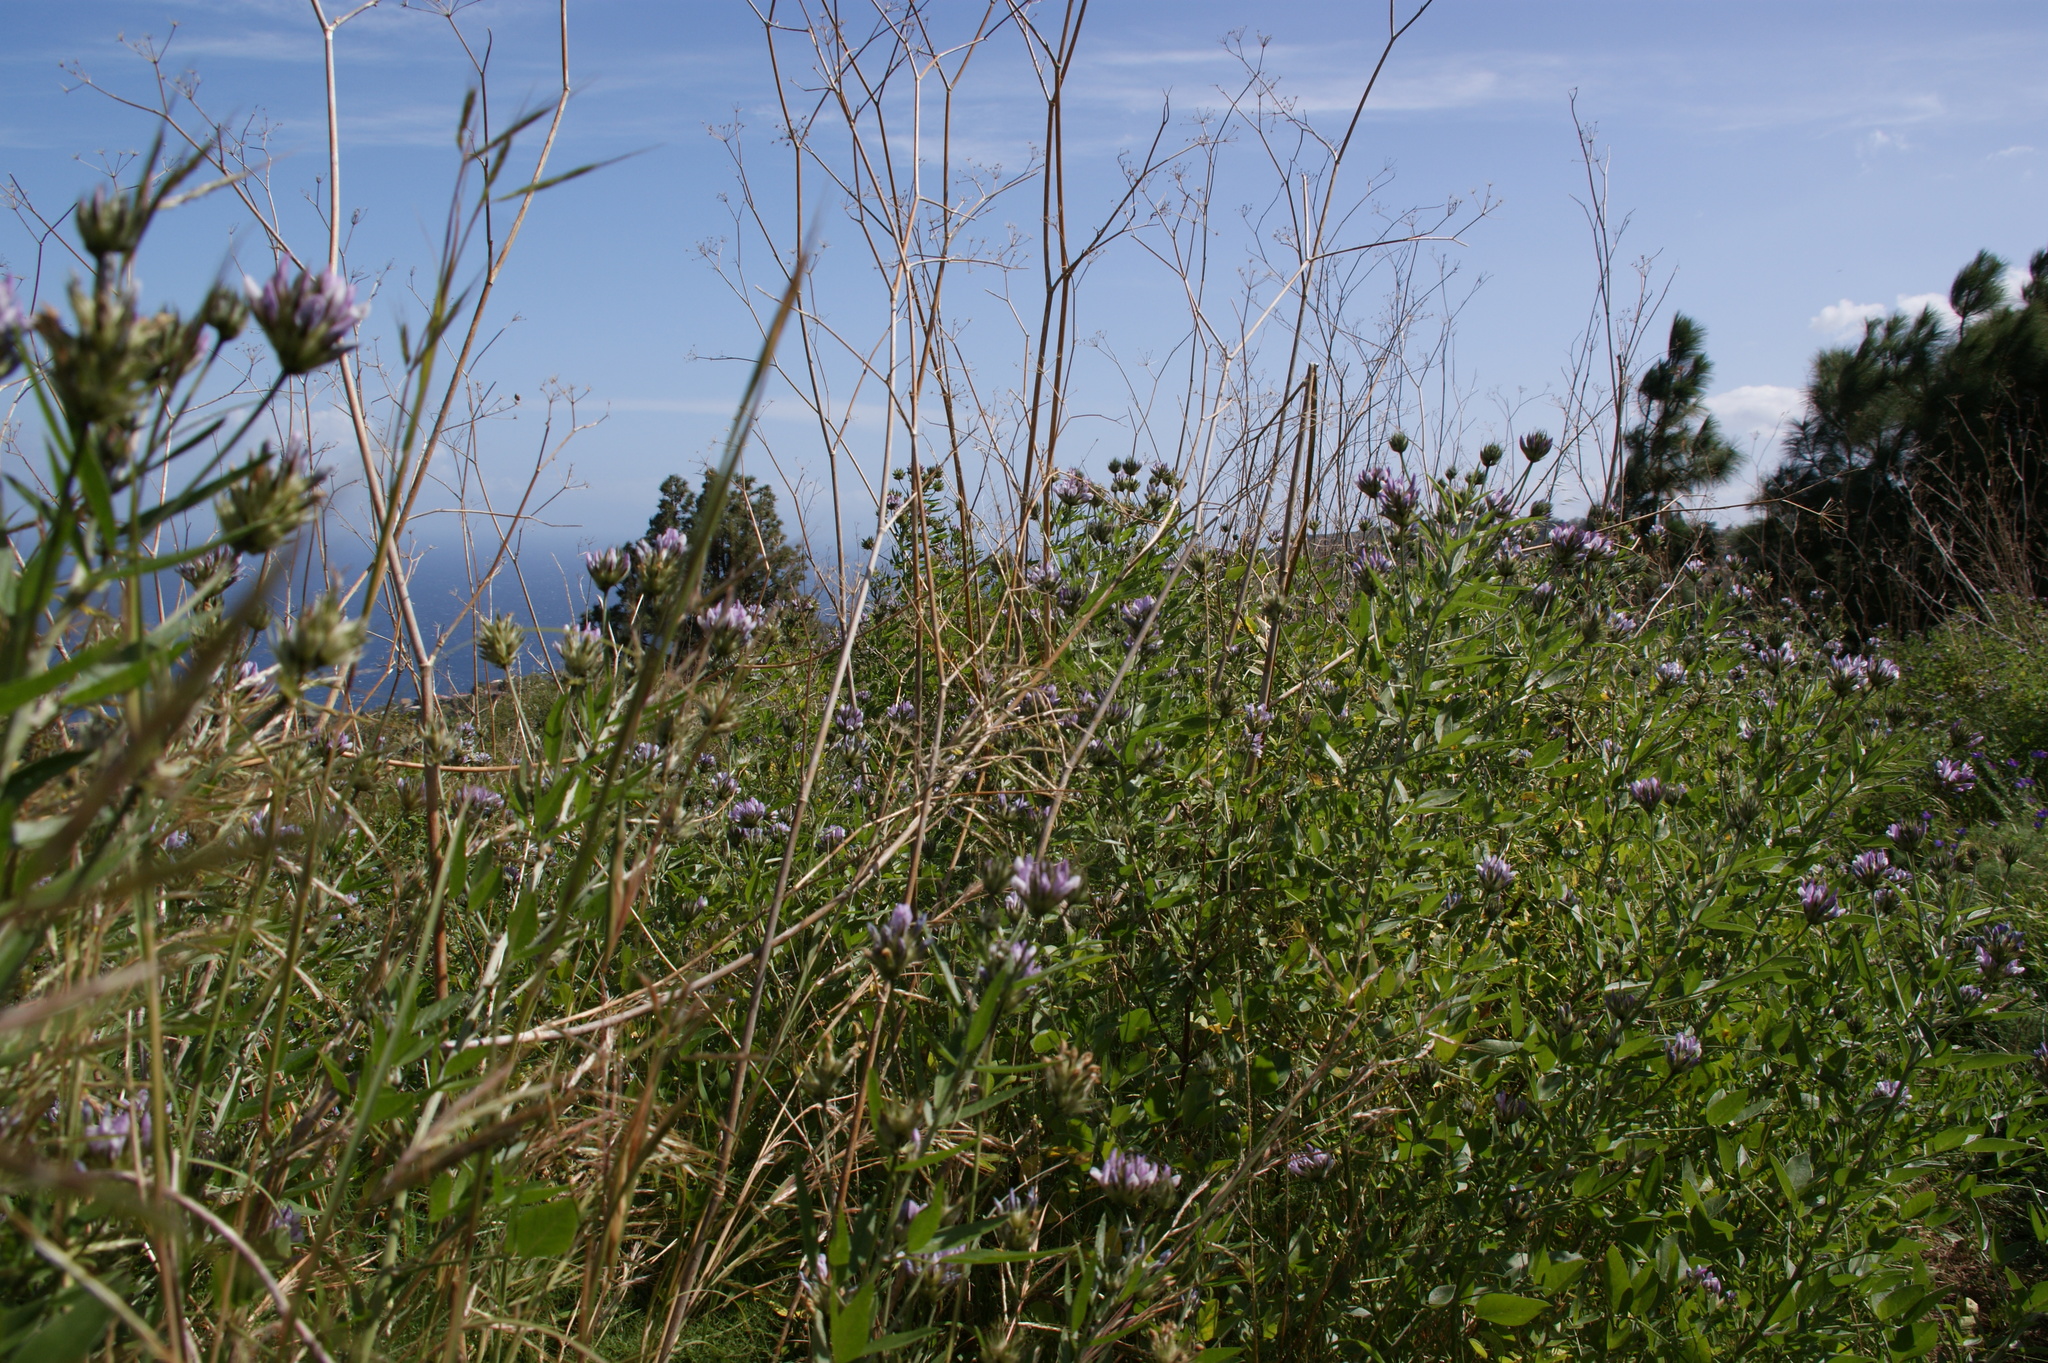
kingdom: Plantae
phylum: Tracheophyta
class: Magnoliopsida
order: Fabales
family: Fabaceae
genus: Bituminaria
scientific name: Bituminaria bituminosa
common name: Arabian pea
